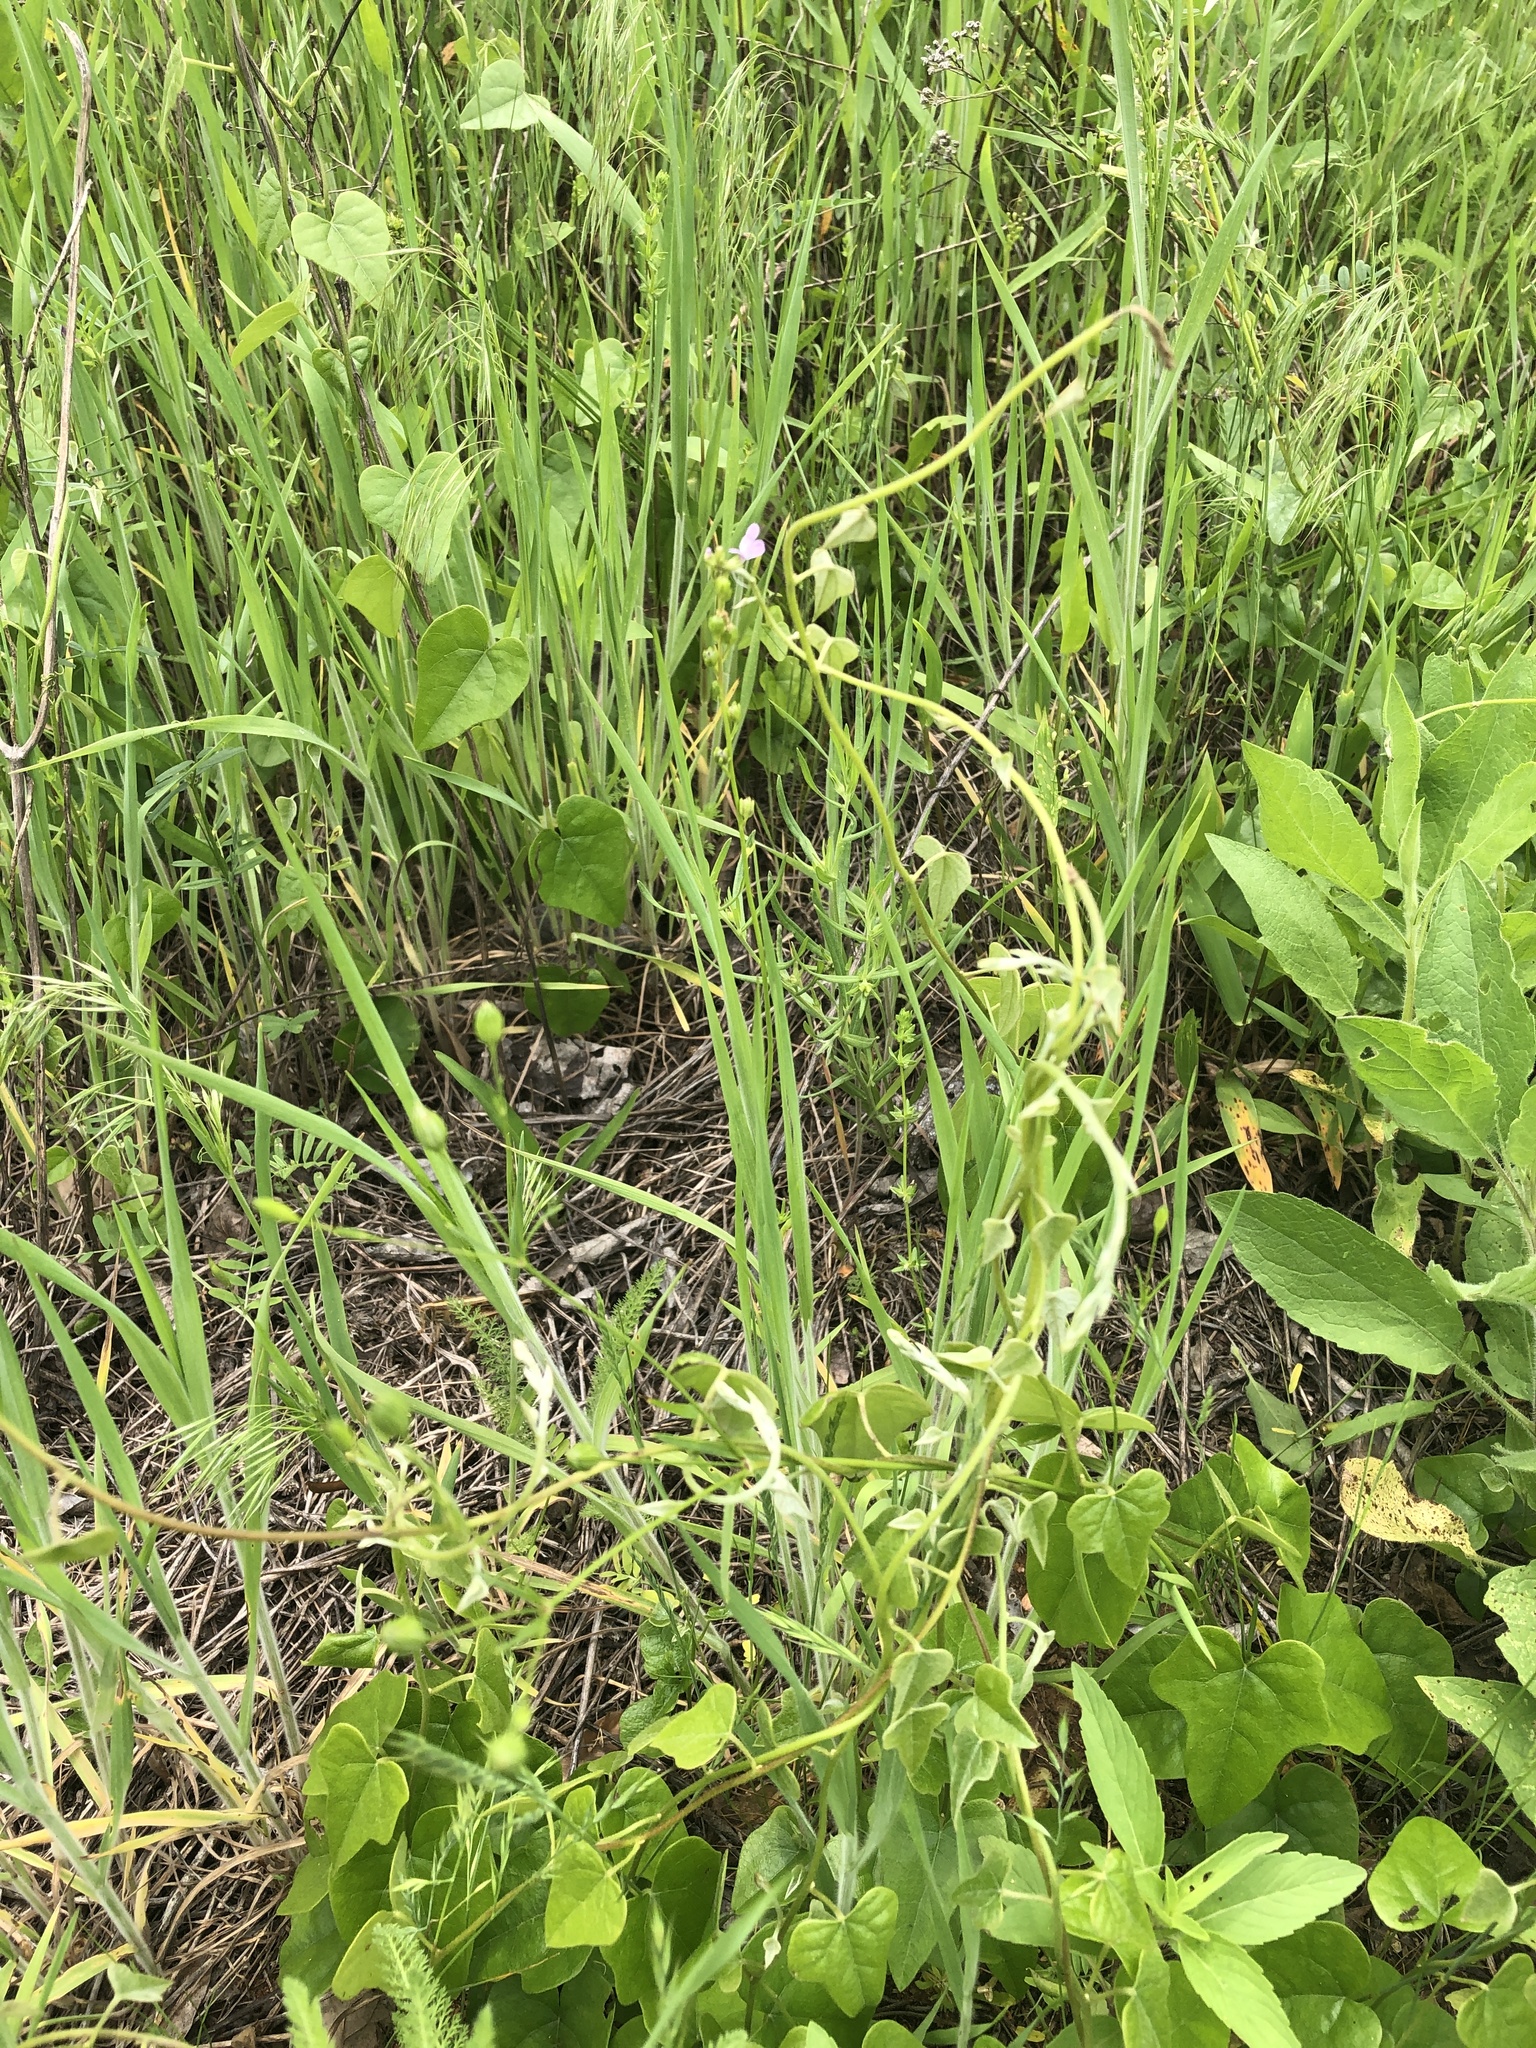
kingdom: Plantae
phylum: Tracheophyta
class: Magnoliopsida
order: Lamiales
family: Plantaginaceae
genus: Nuttallanthus
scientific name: Nuttallanthus texanus
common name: Texas toadflax
